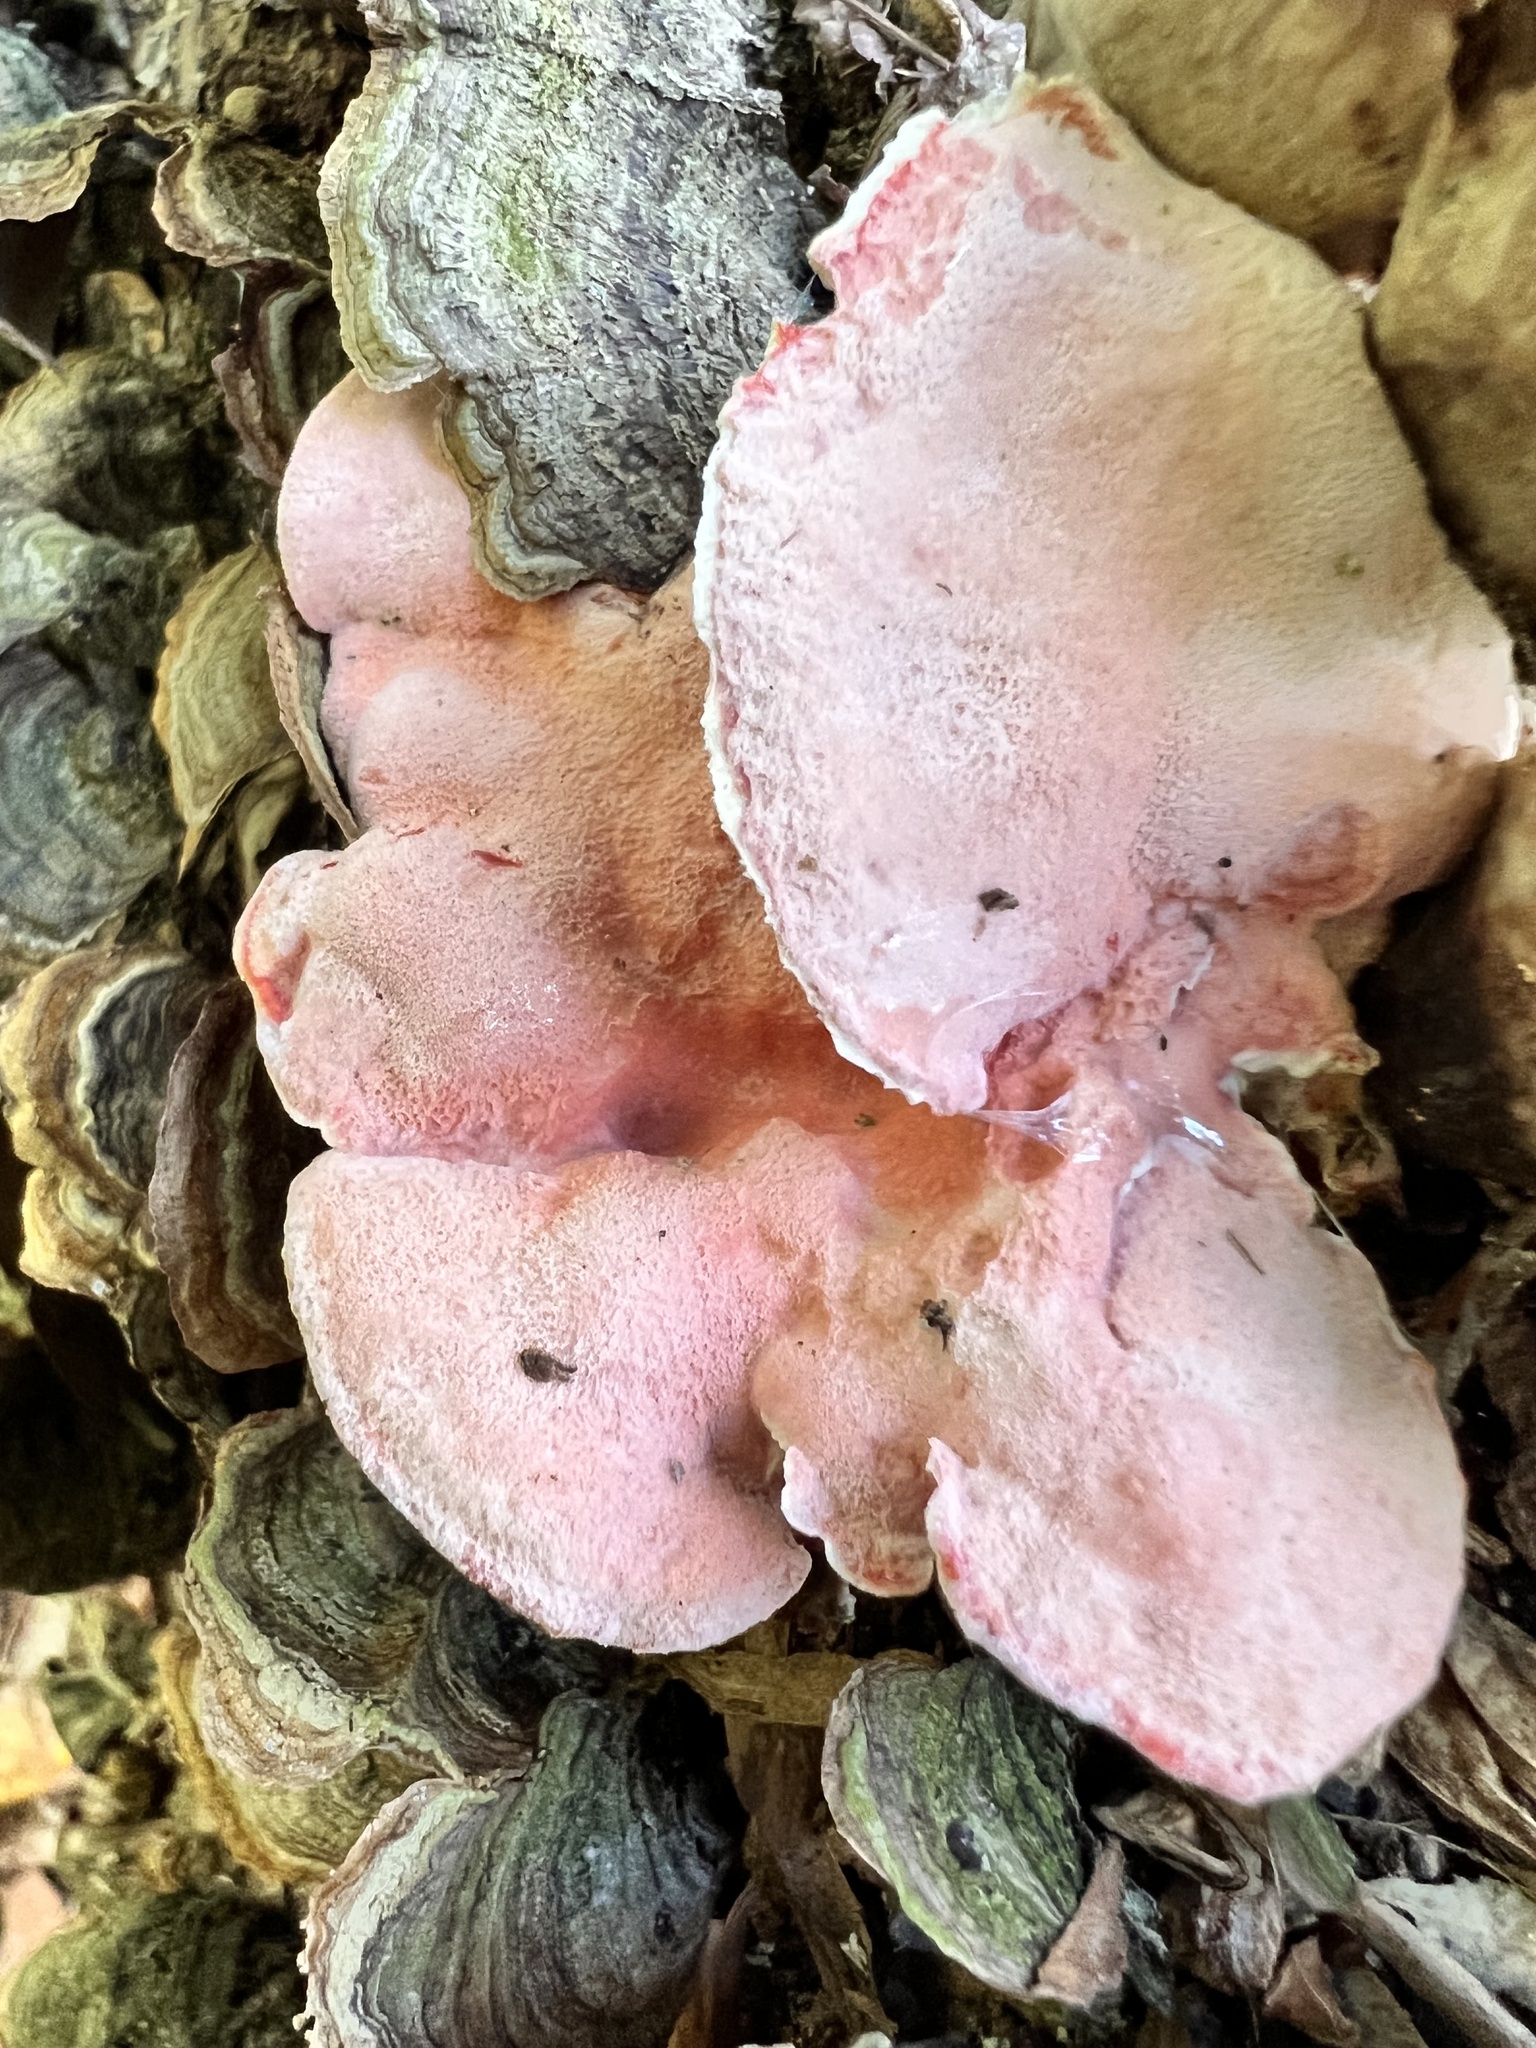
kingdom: Fungi
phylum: Basidiomycota
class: Agaricomycetes
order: Polyporales
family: Irpicaceae
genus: Byssomerulius
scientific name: Byssomerulius incarnatus
